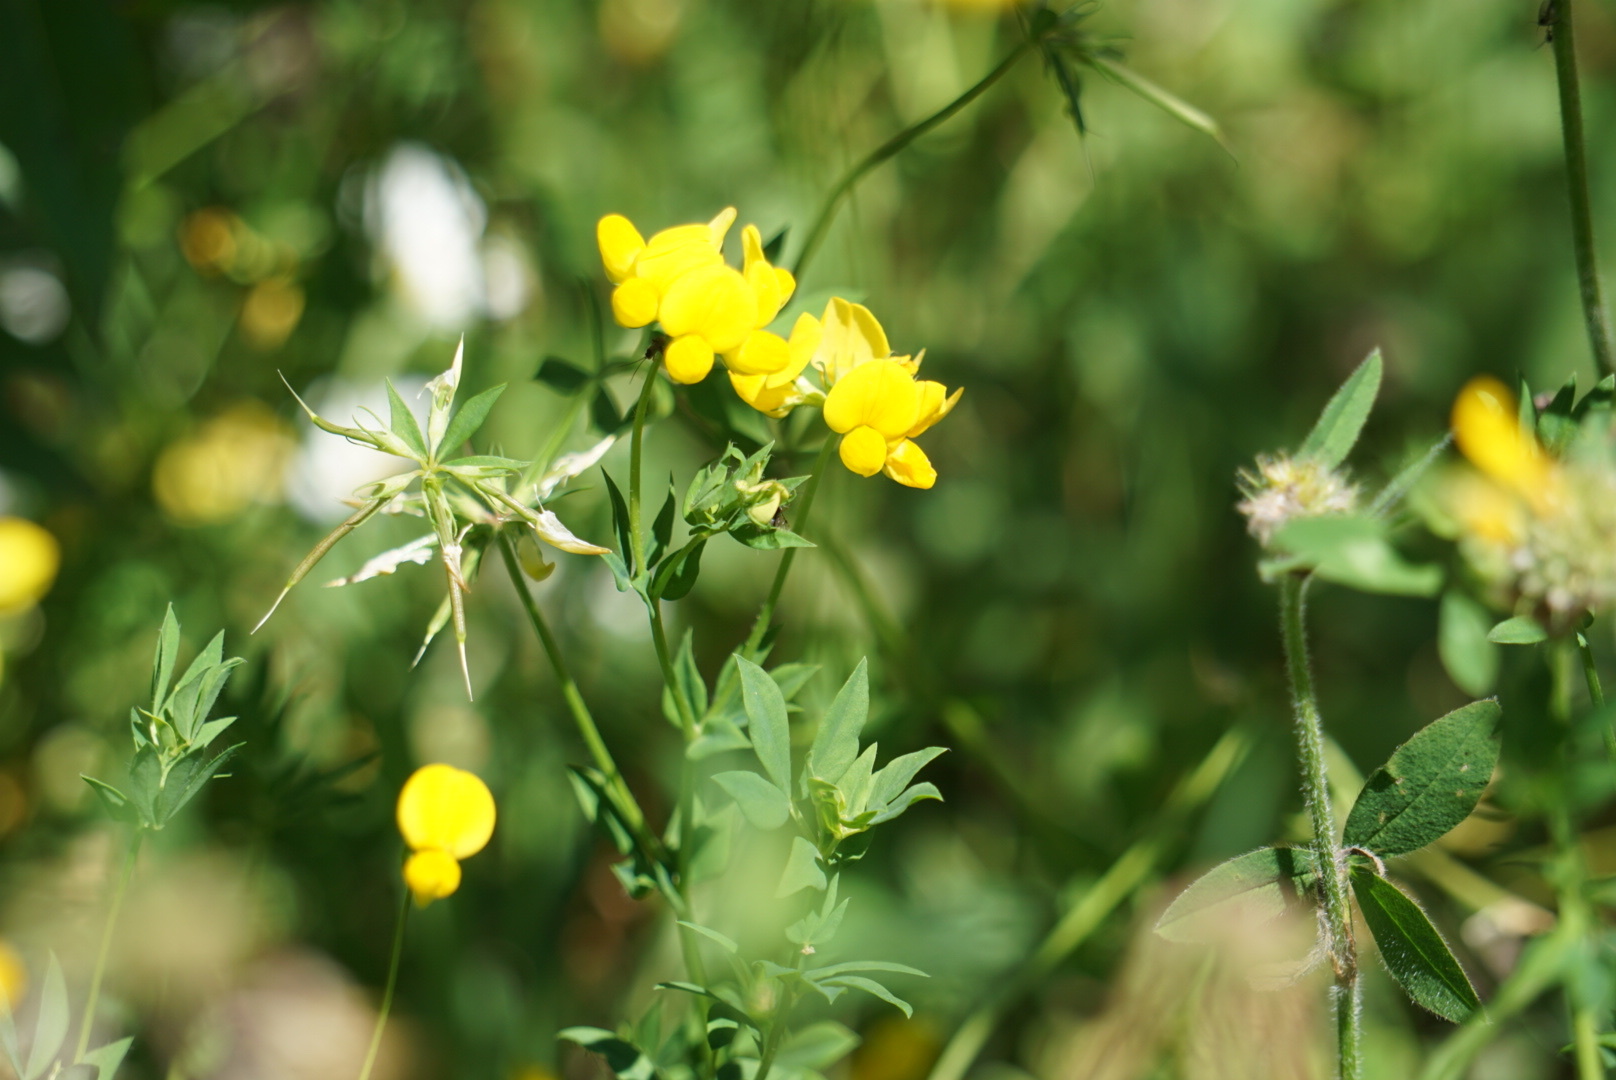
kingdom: Plantae
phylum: Tracheophyta
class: Magnoliopsida
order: Fabales
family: Fabaceae
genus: Lotus
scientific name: Lotus corniculatus
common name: Common bird's-foot-trefoil
